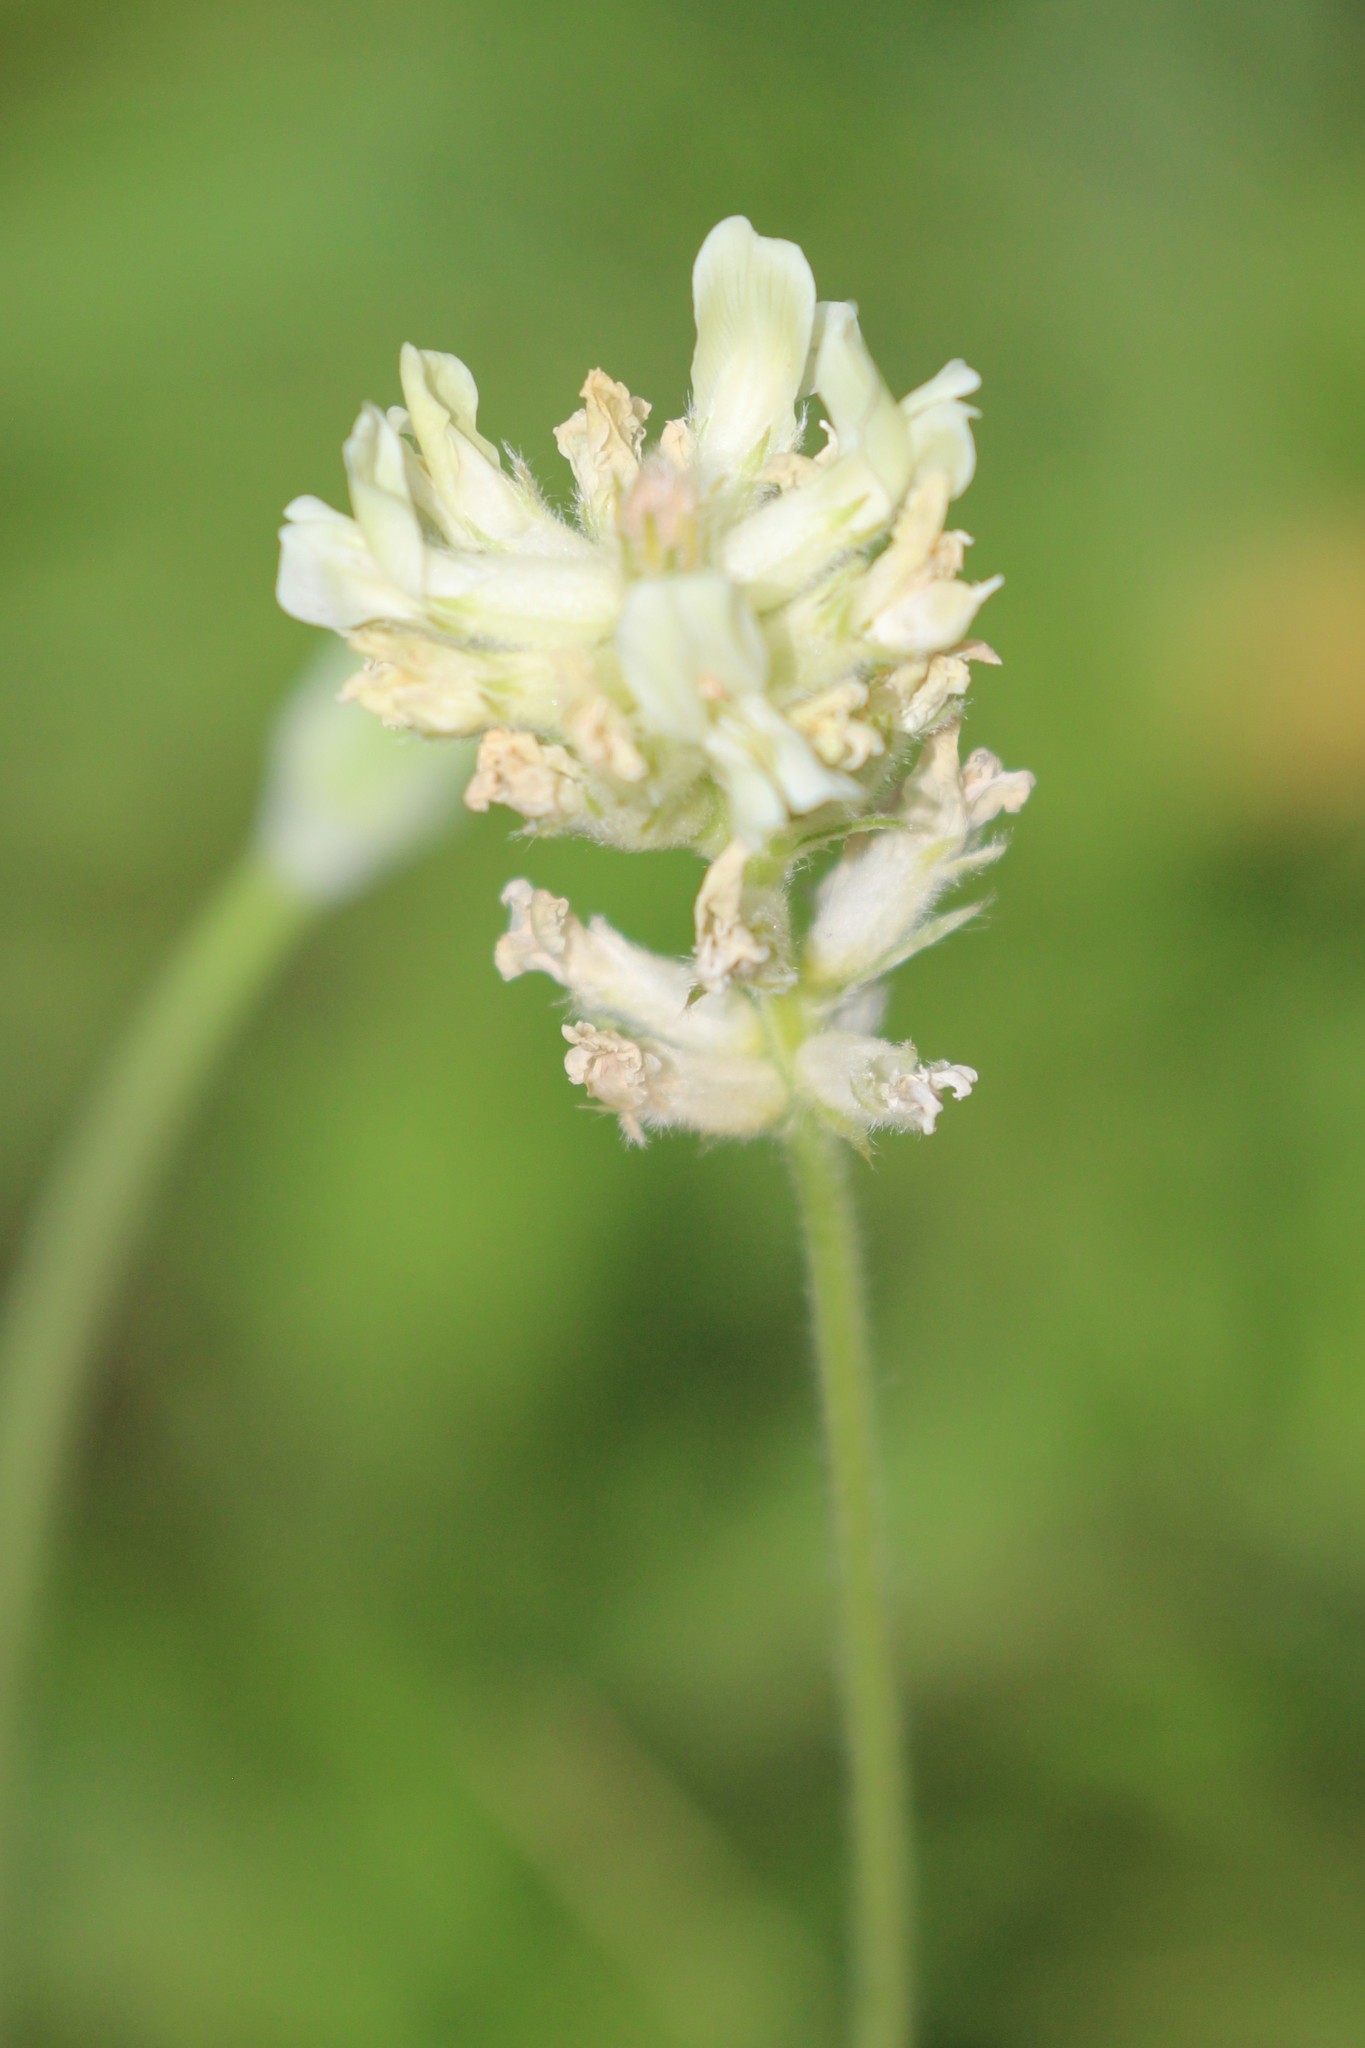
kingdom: Plantae
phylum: Tracheophyta
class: Magnoliopsida
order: Fabales
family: Fabaceae
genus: Oxytropis
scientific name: Oxytropis campestris
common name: Field locoweed
